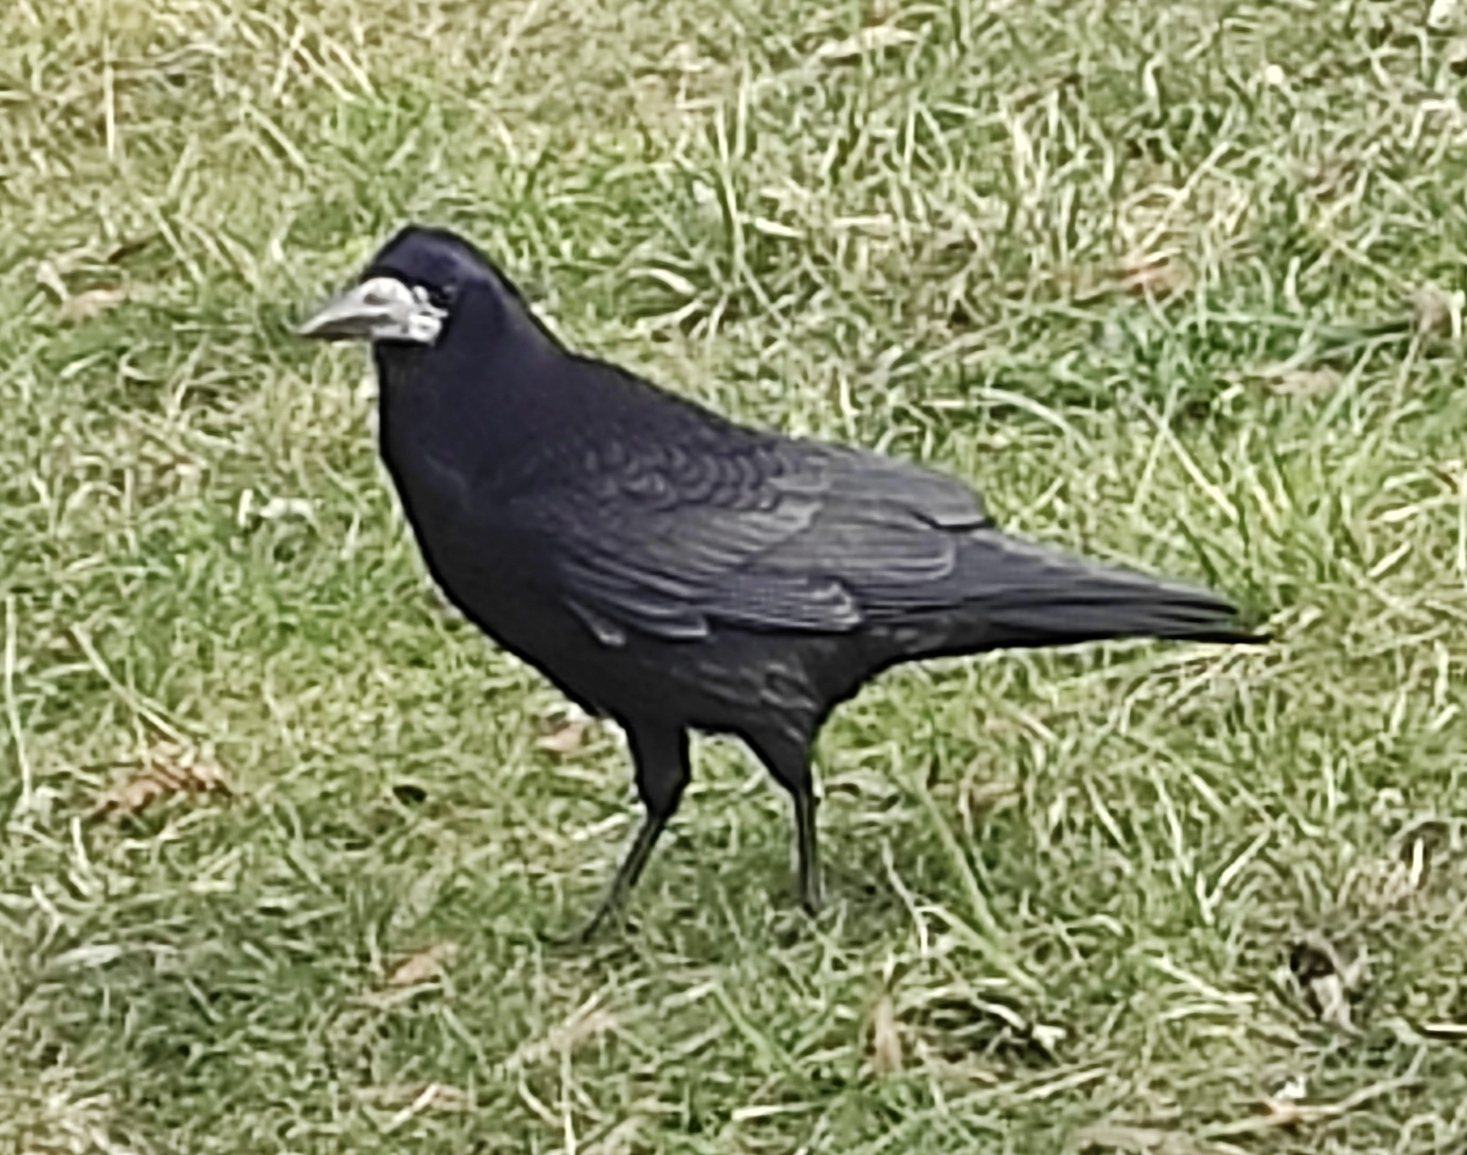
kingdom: Animalia
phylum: Chordata
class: Aves
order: Passeriformes
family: Corvidae
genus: Corvus
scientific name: Corvus frugilegus
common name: Rook
